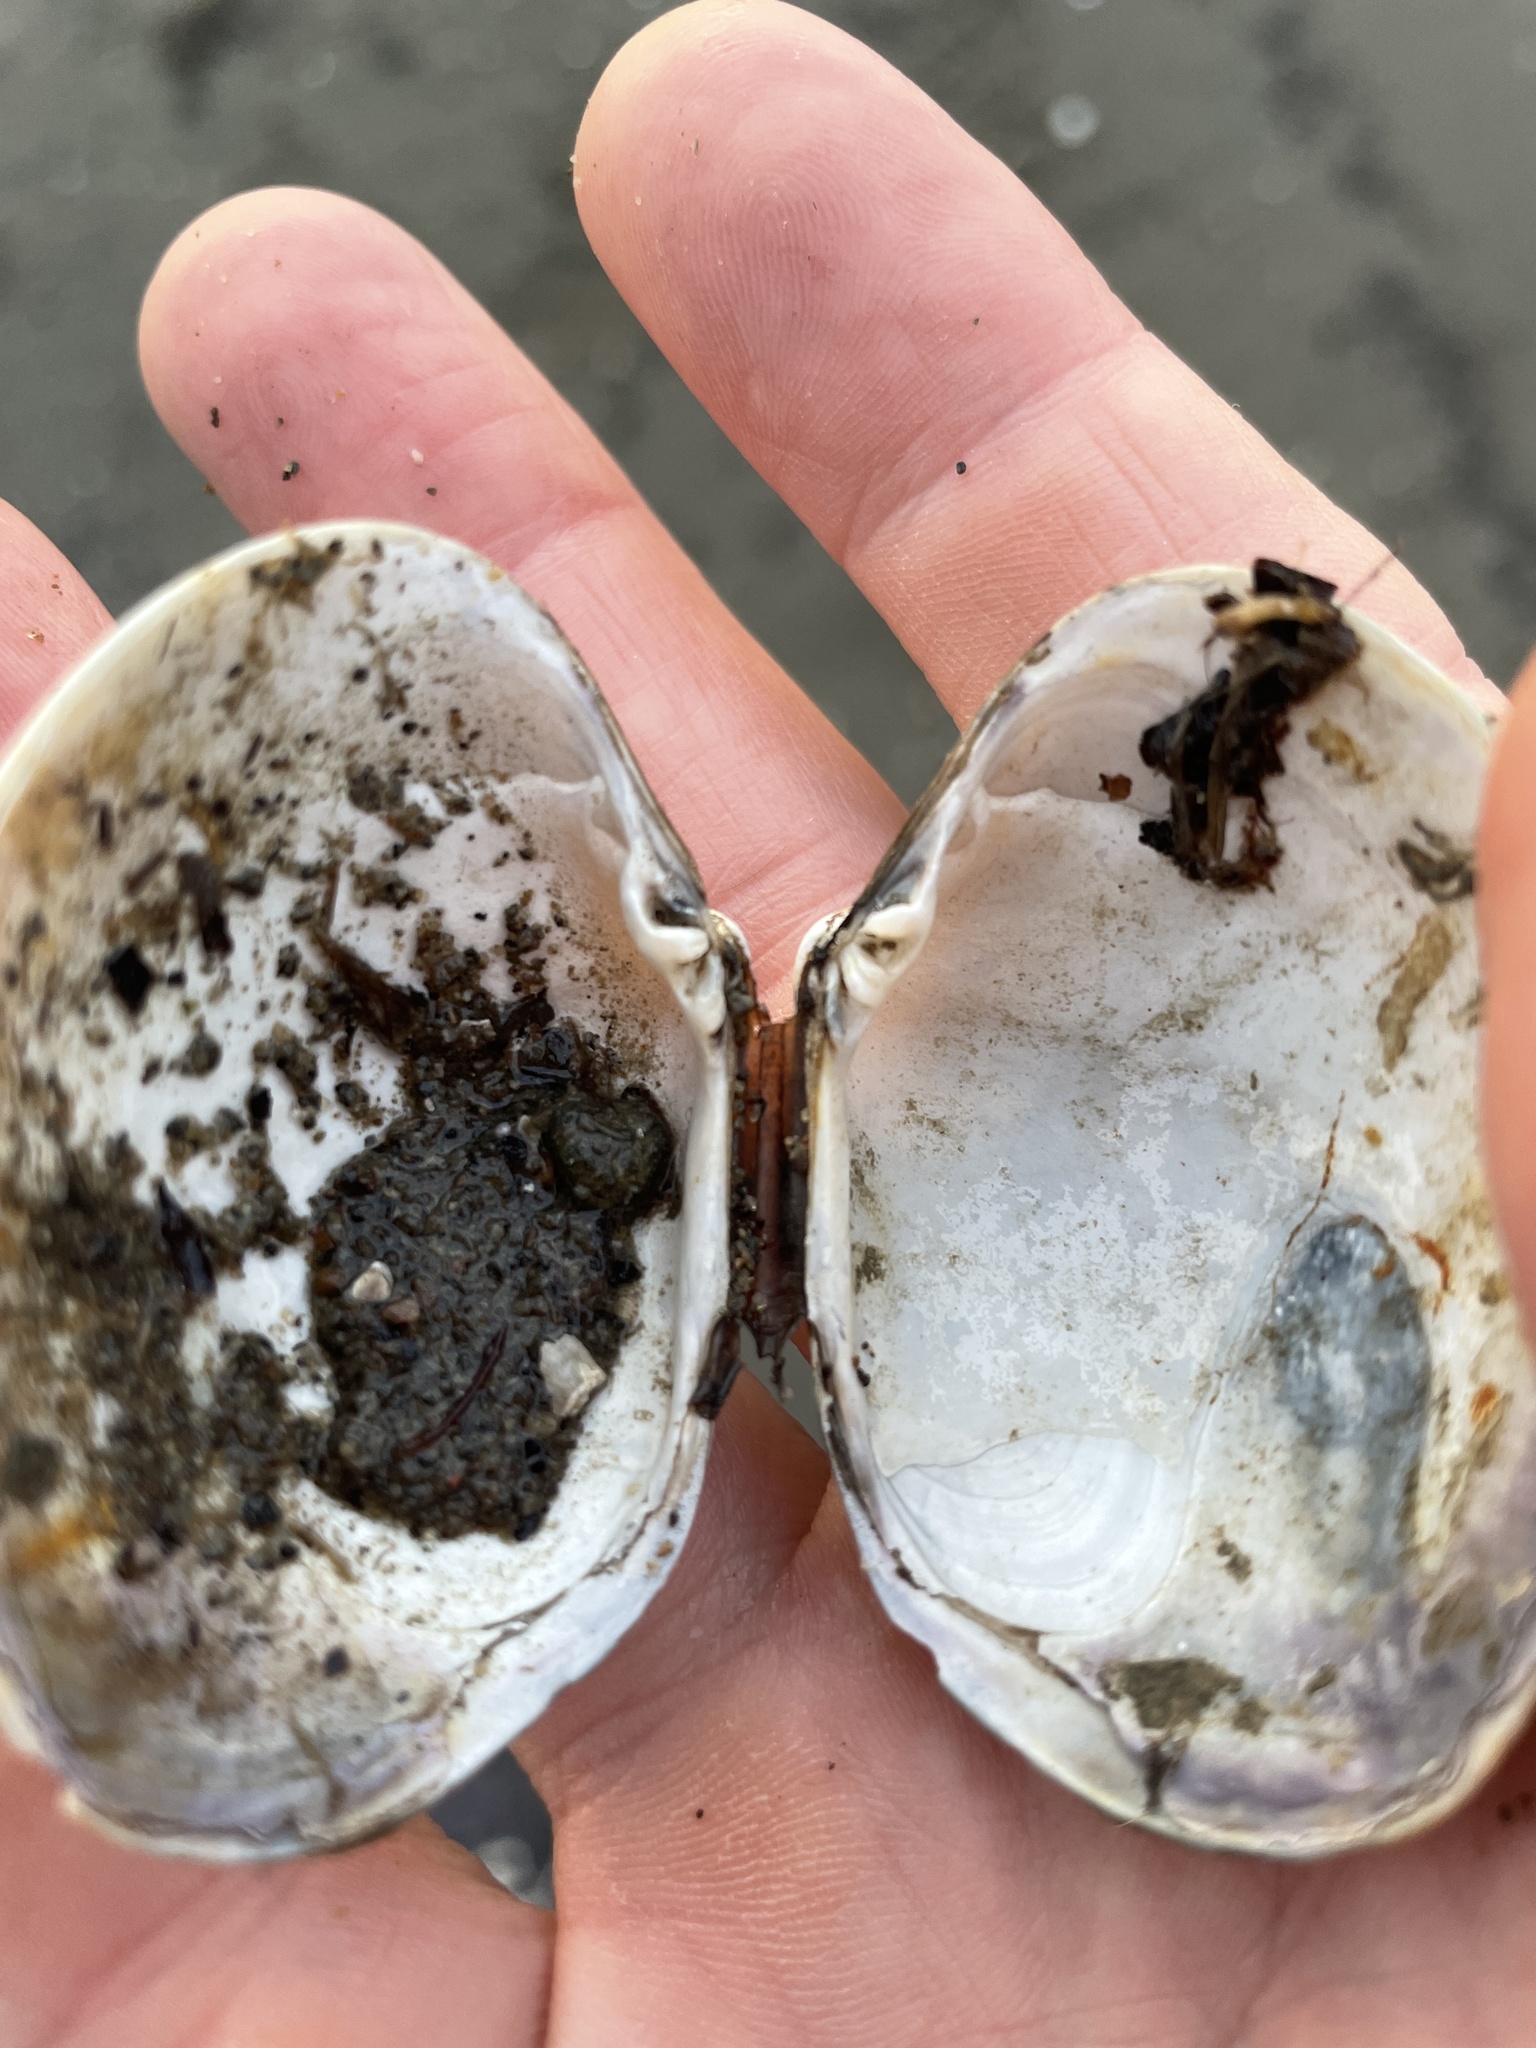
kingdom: Animalia
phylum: Mollusca
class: Bivalvia
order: Venerida
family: Veneridae
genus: Ruditapes
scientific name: Ruditapes philippinarum
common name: Manila clam
